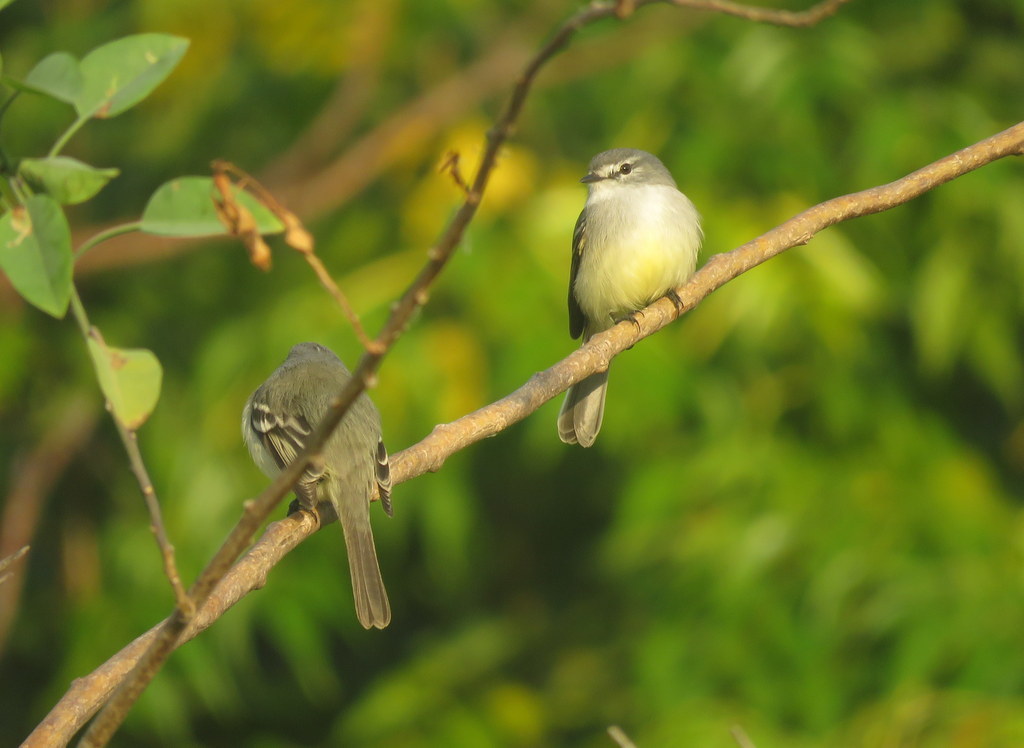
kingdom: Animalia
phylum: Chordata
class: Aves
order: Passeriformes
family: Tyrannidae
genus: Serpophaga
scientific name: Serpophaga subcristata
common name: White-crested tyrannulet
